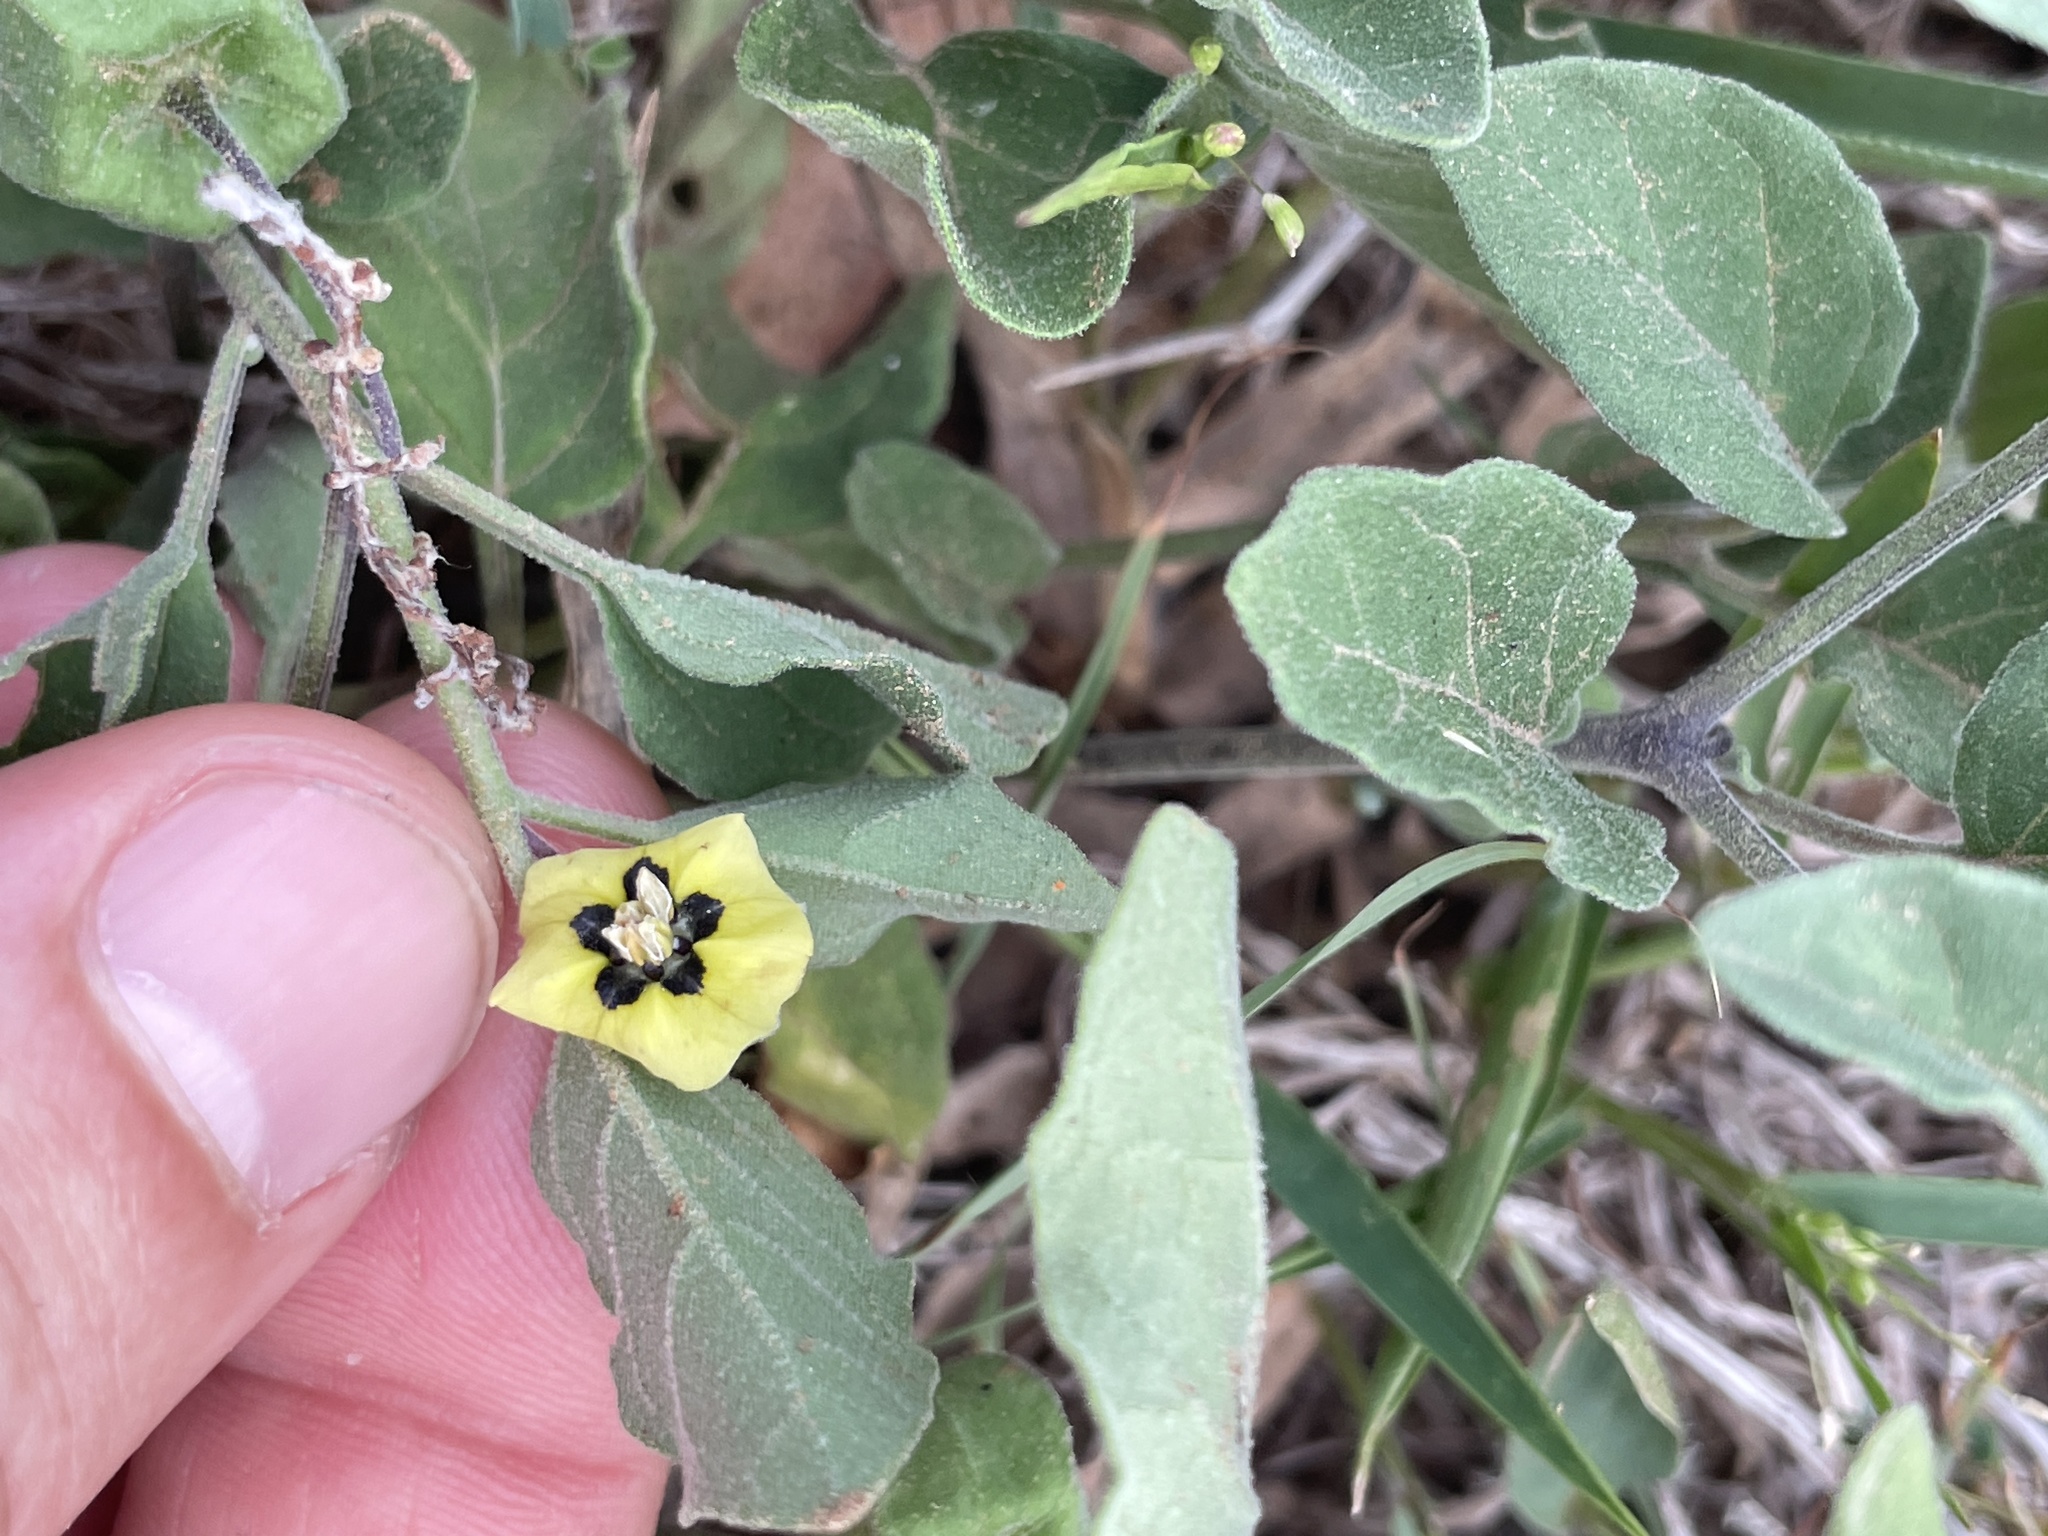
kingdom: Plantae
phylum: Tracheophyta
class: Magnoliopsida
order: Solanales
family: Solanaceae
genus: Physalis
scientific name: Physalis cinerascens
